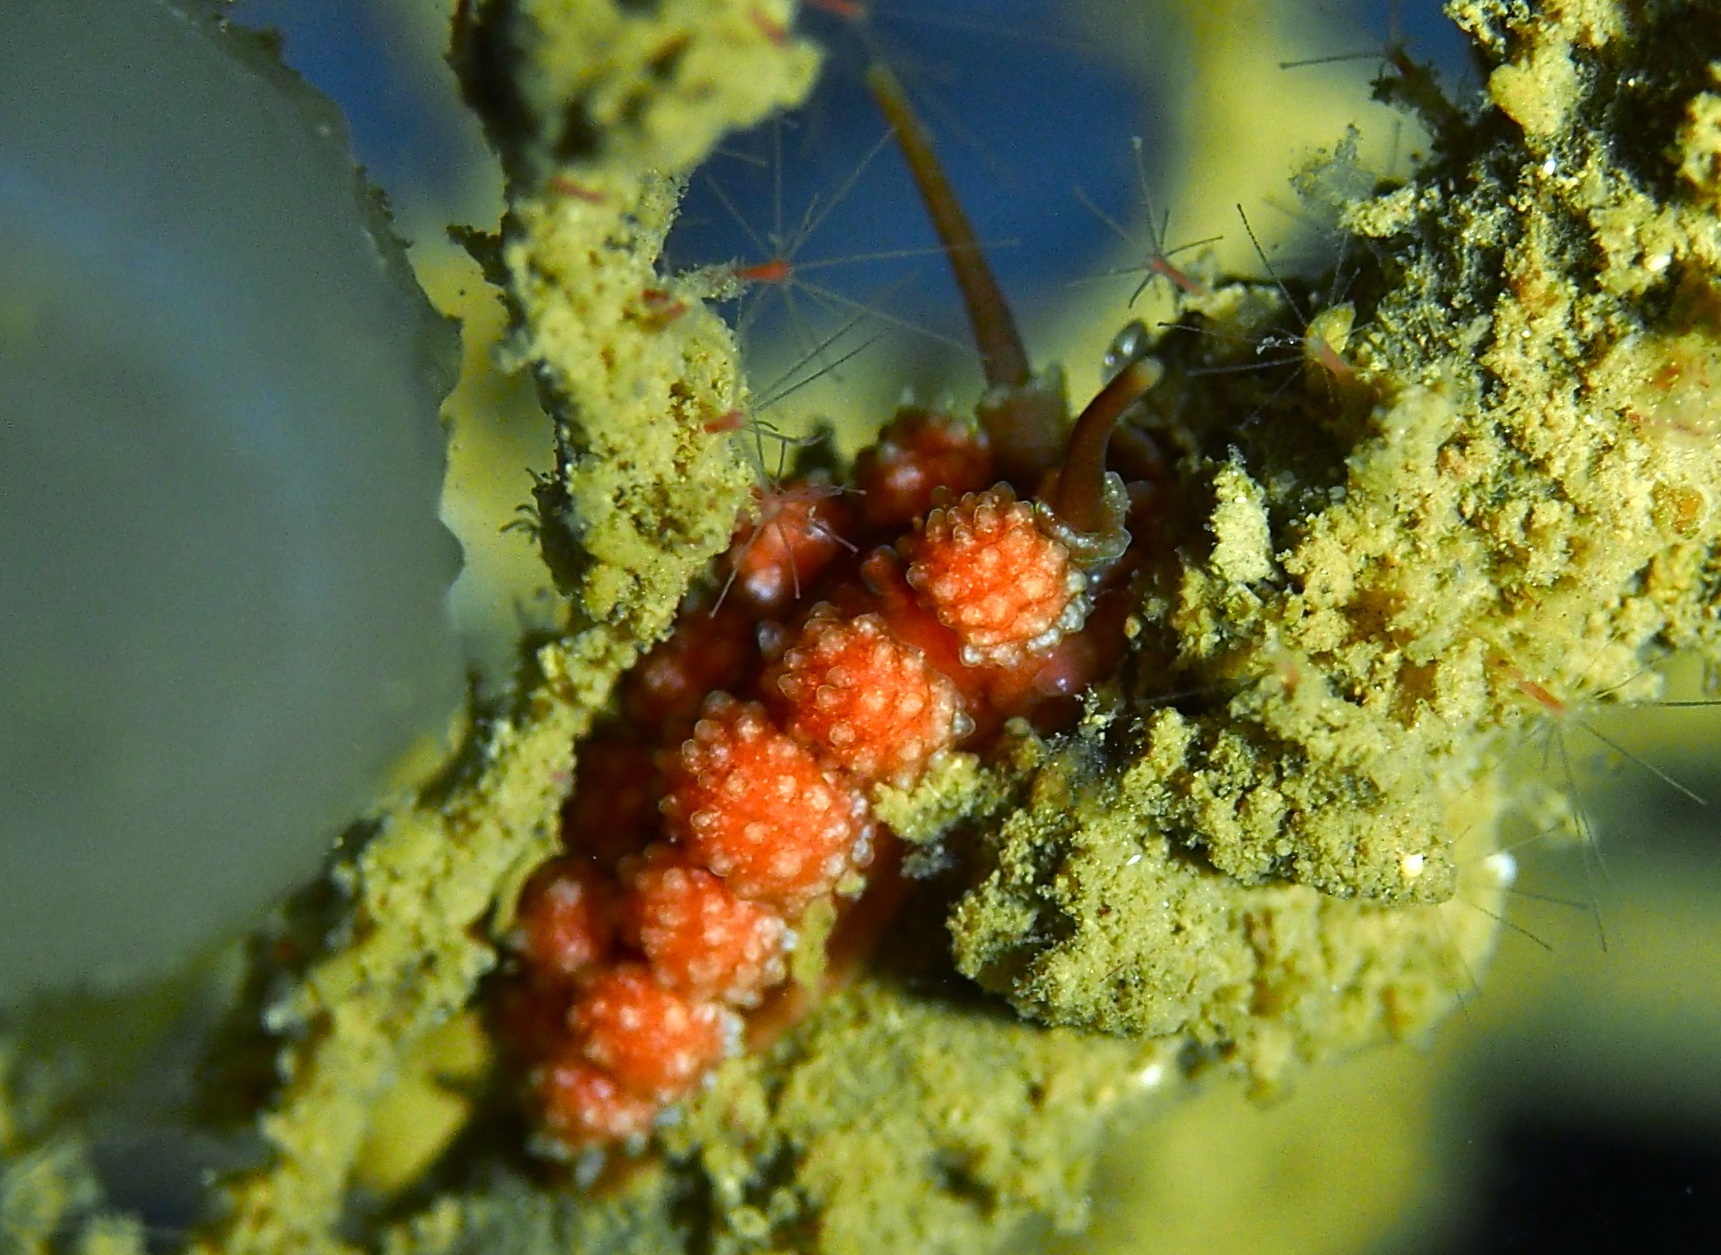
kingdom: Animalia
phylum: Mollusca
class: Gastropoda
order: Nudibranchia
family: Dotidae
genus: Doto
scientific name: Doto fragilis
